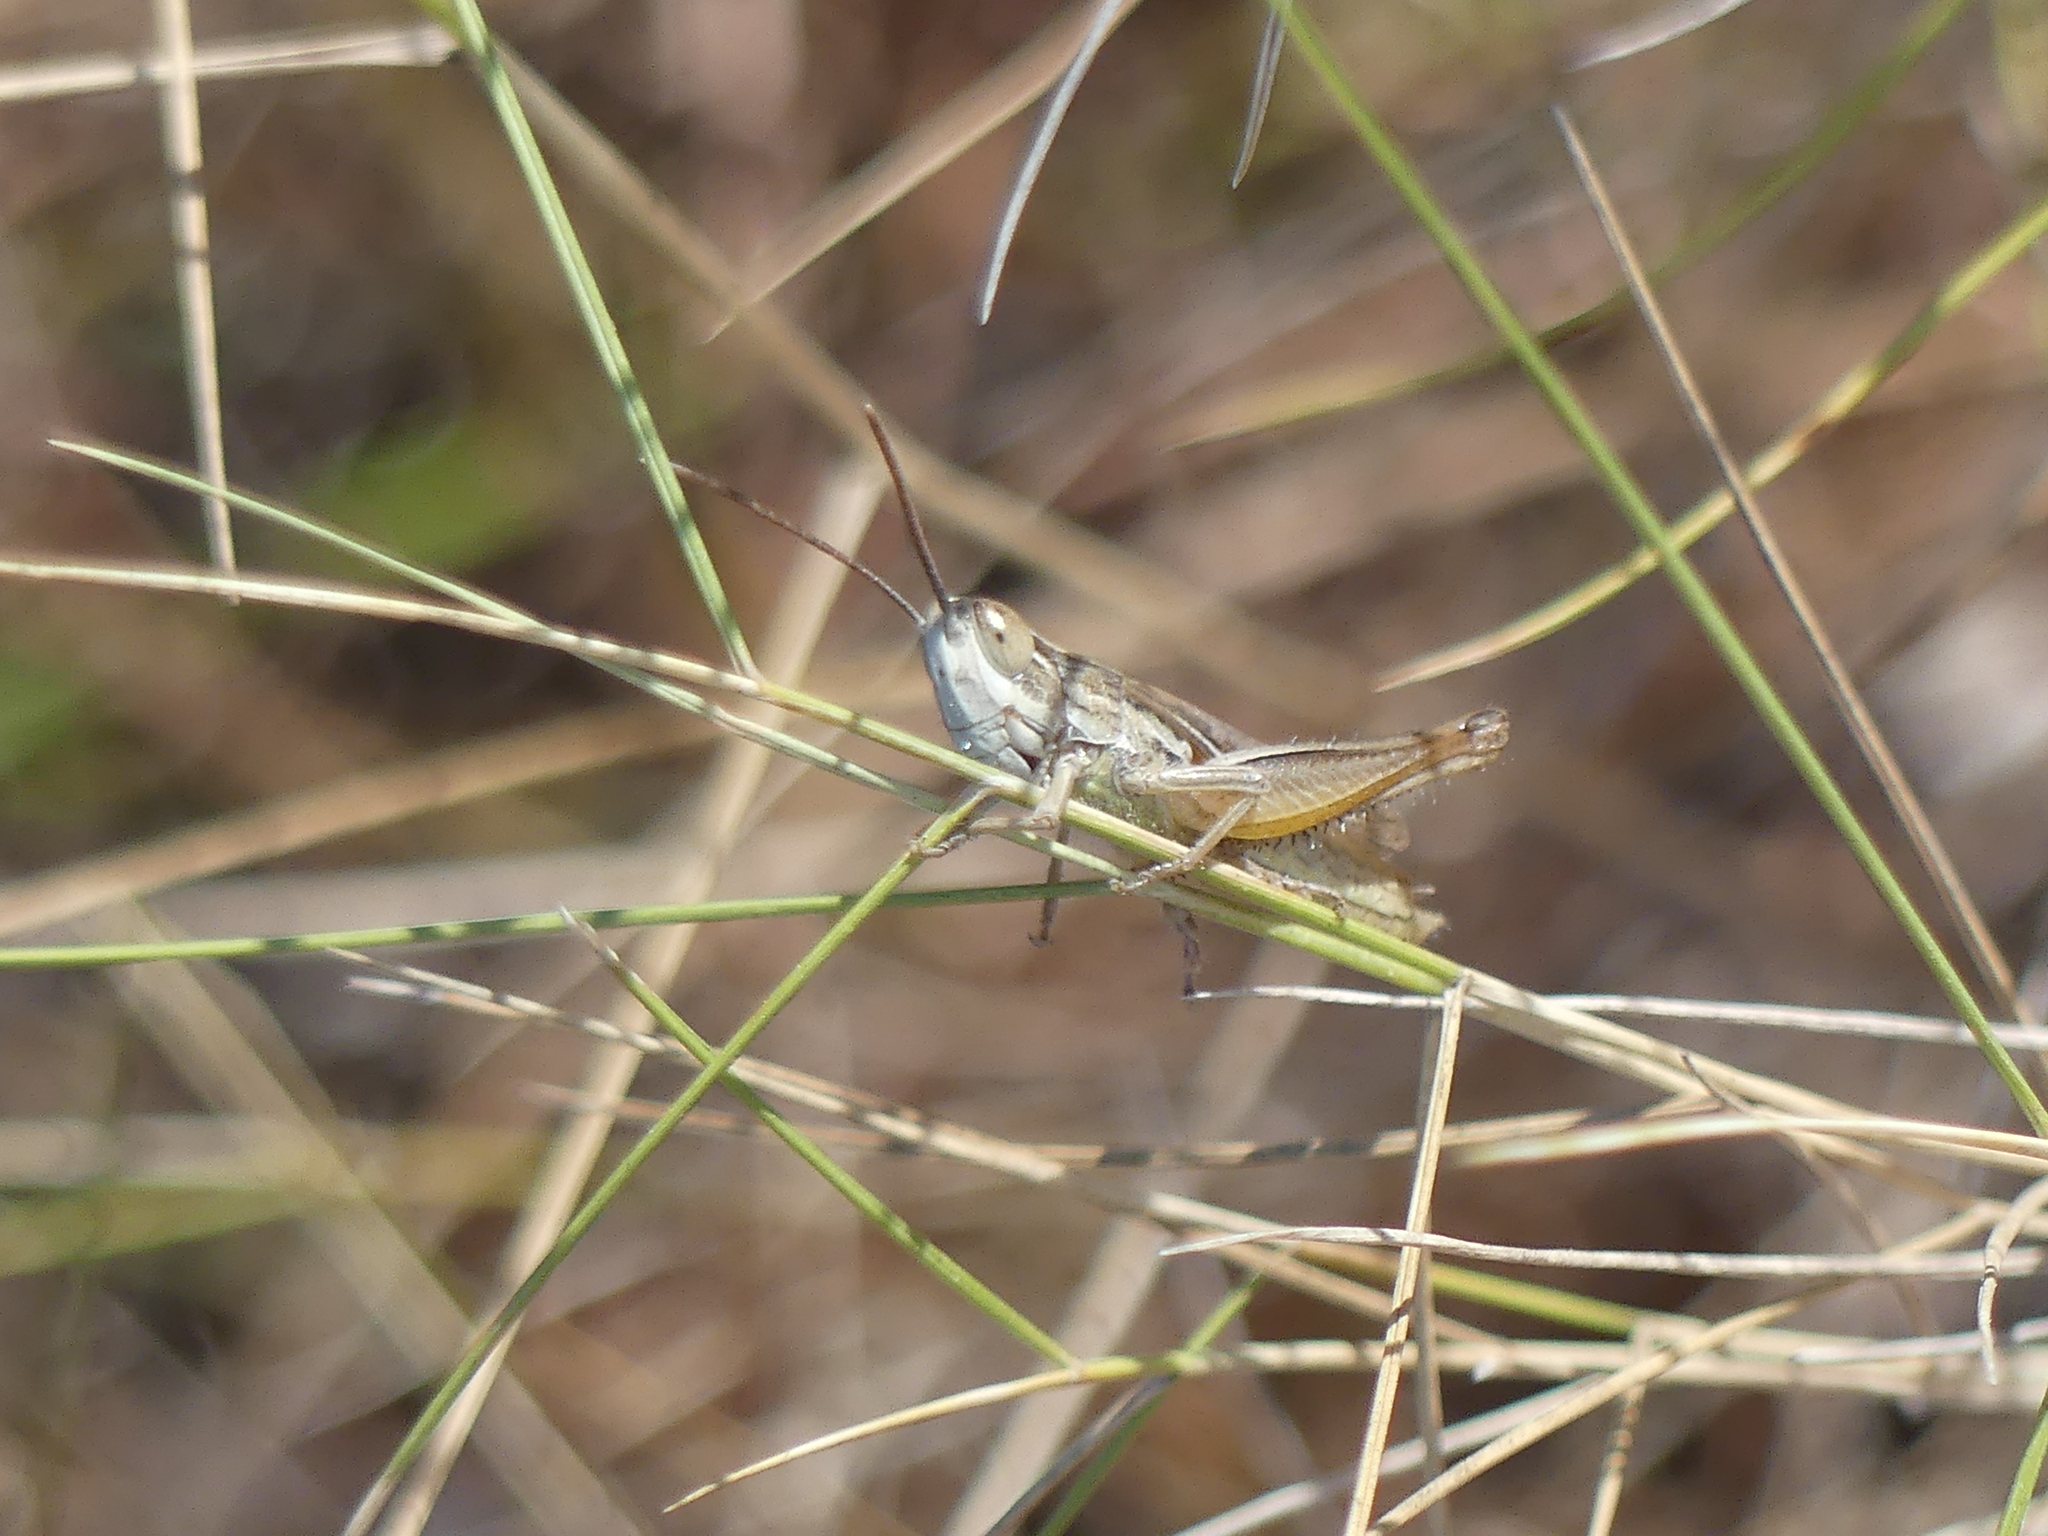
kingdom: Animalia
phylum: Arthropoda
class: Insecta
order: Orthoptera
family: Acrididae
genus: Euchorthippus
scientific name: Euchorthippus elegantulus
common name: Elegant straw grasshopper
